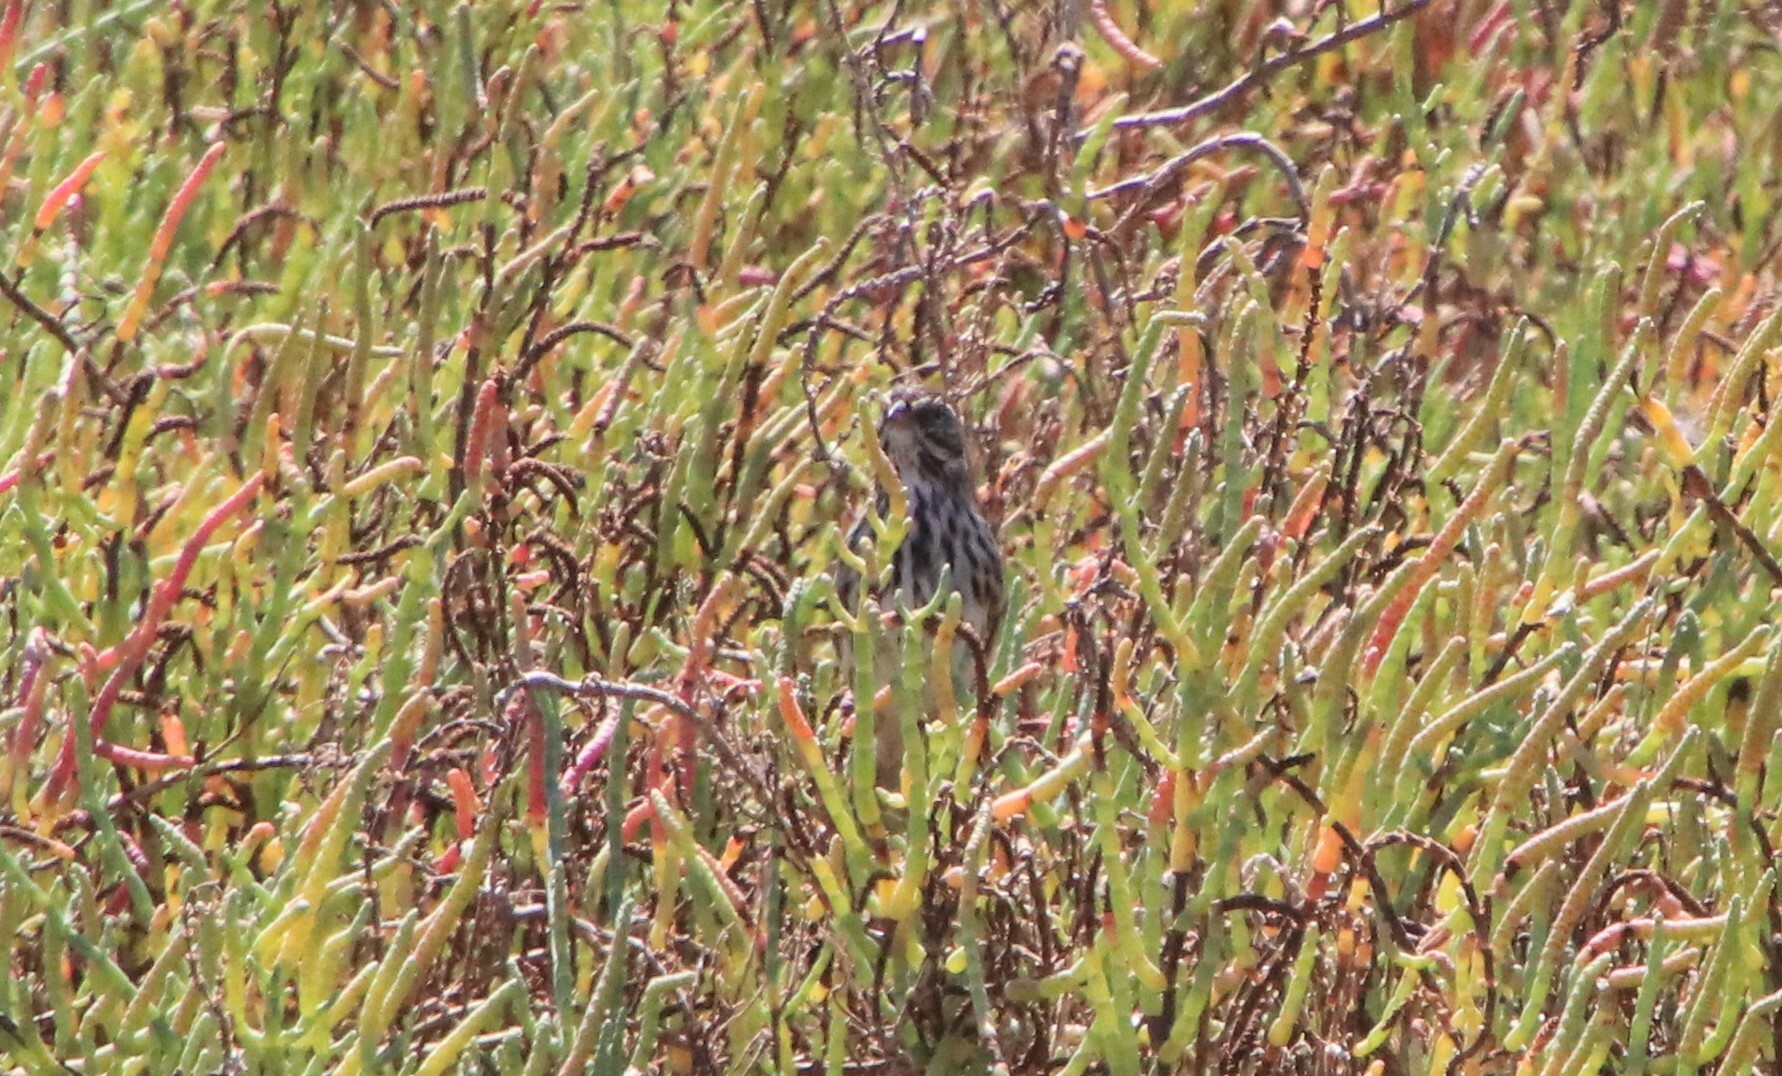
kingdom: Animalia
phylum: Chordata
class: Aves
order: Passeriformes
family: Passerellidae
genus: Passerculus
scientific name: Passerculus sandwichensis
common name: Savannah sparrow
